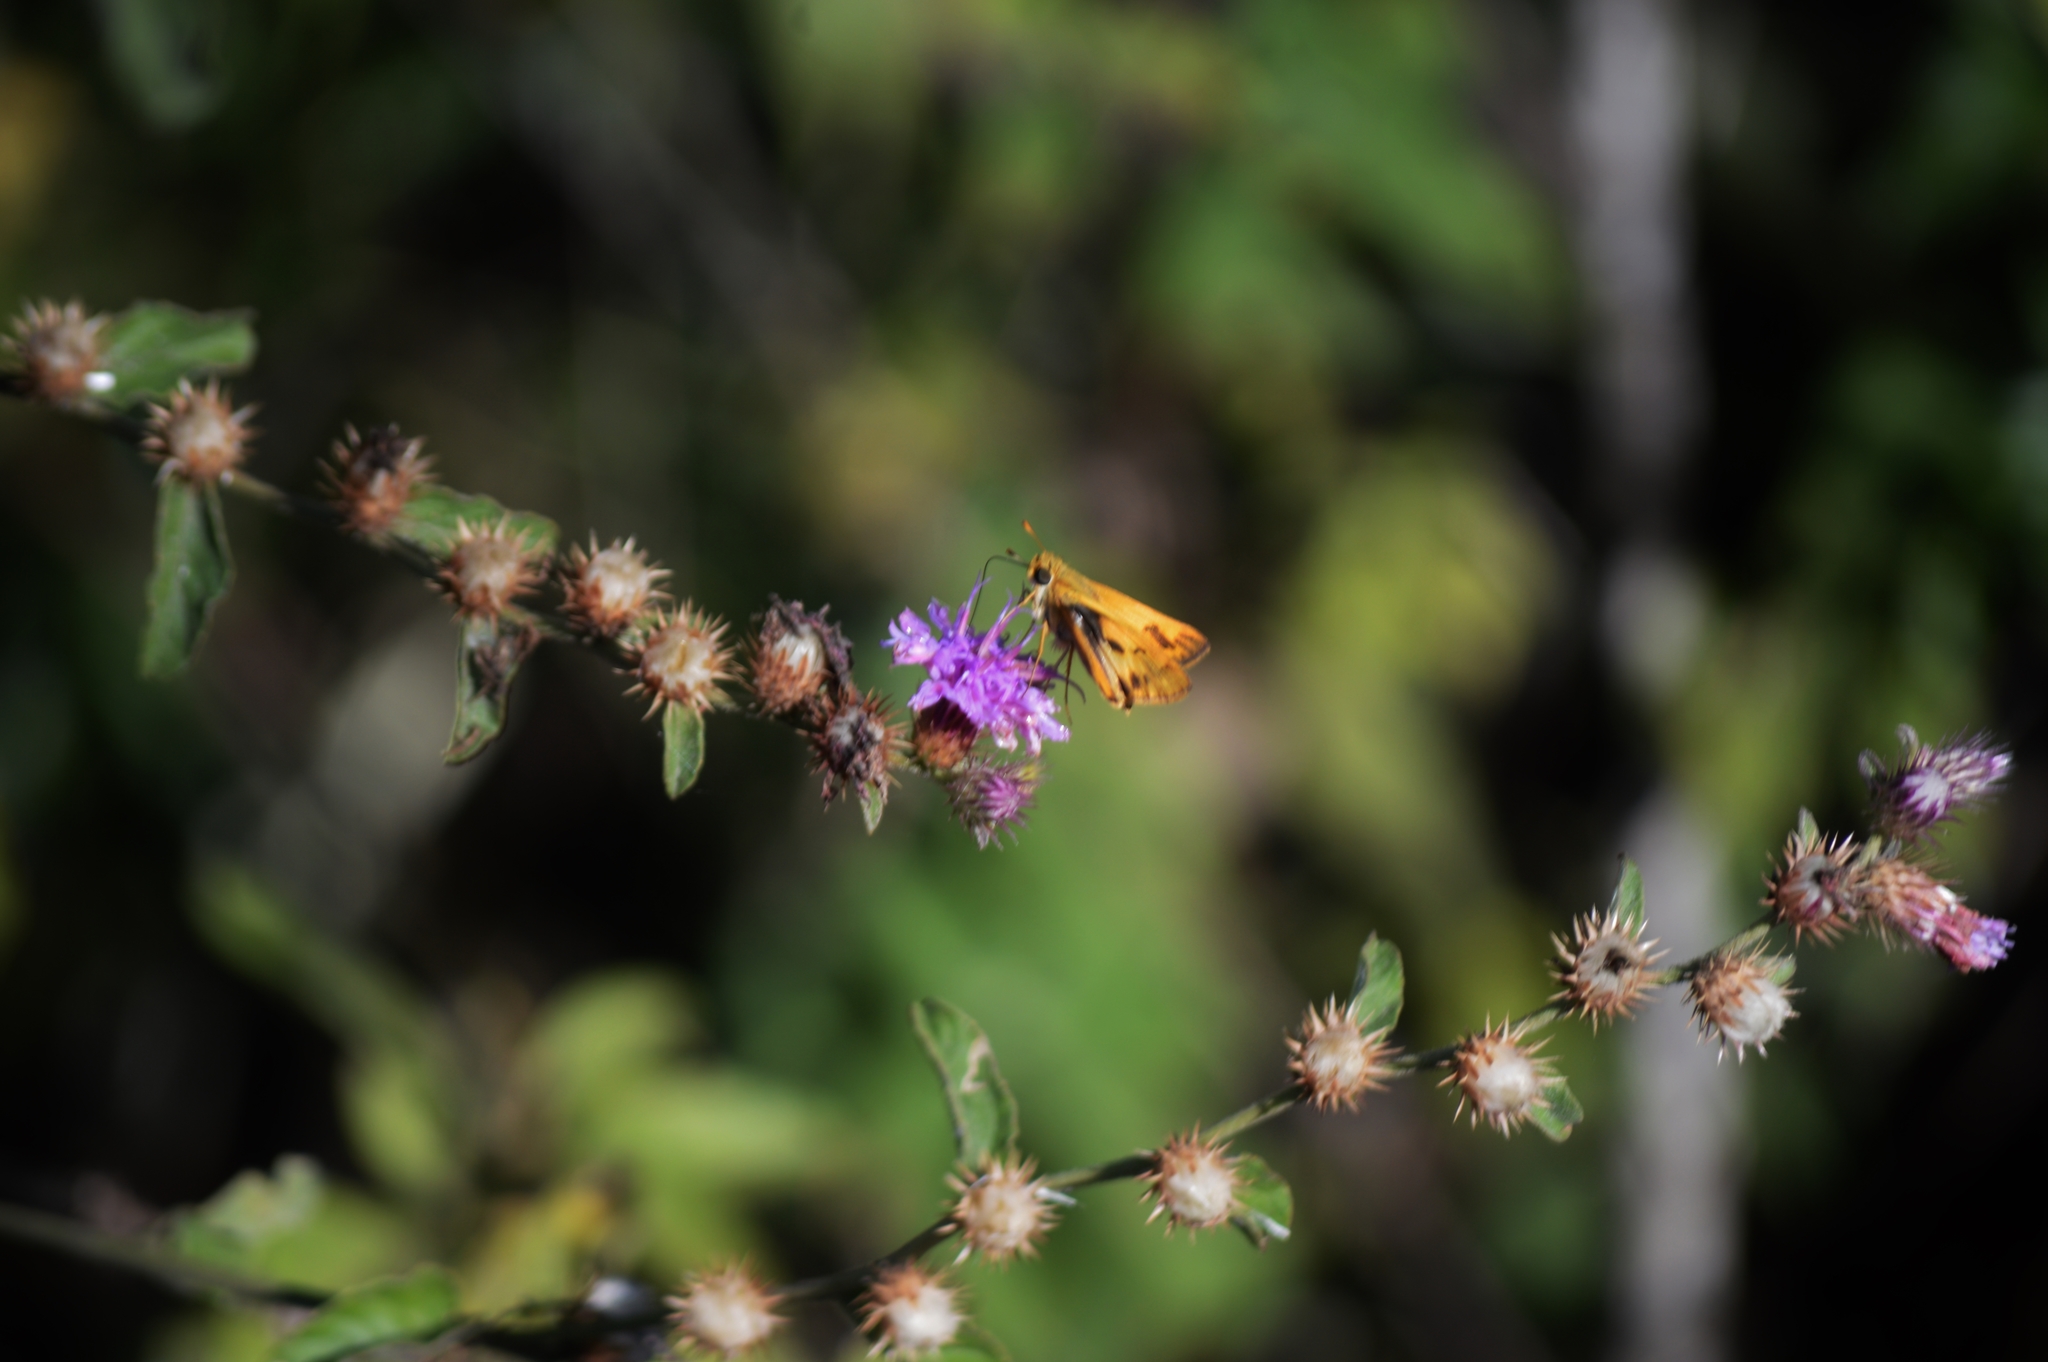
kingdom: Animalia
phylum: Arthropoda
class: Insecta
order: Lepidoptera
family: Hesperiidae
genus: Hylephila
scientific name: Hylephila phyleus
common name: Fiery skipper
